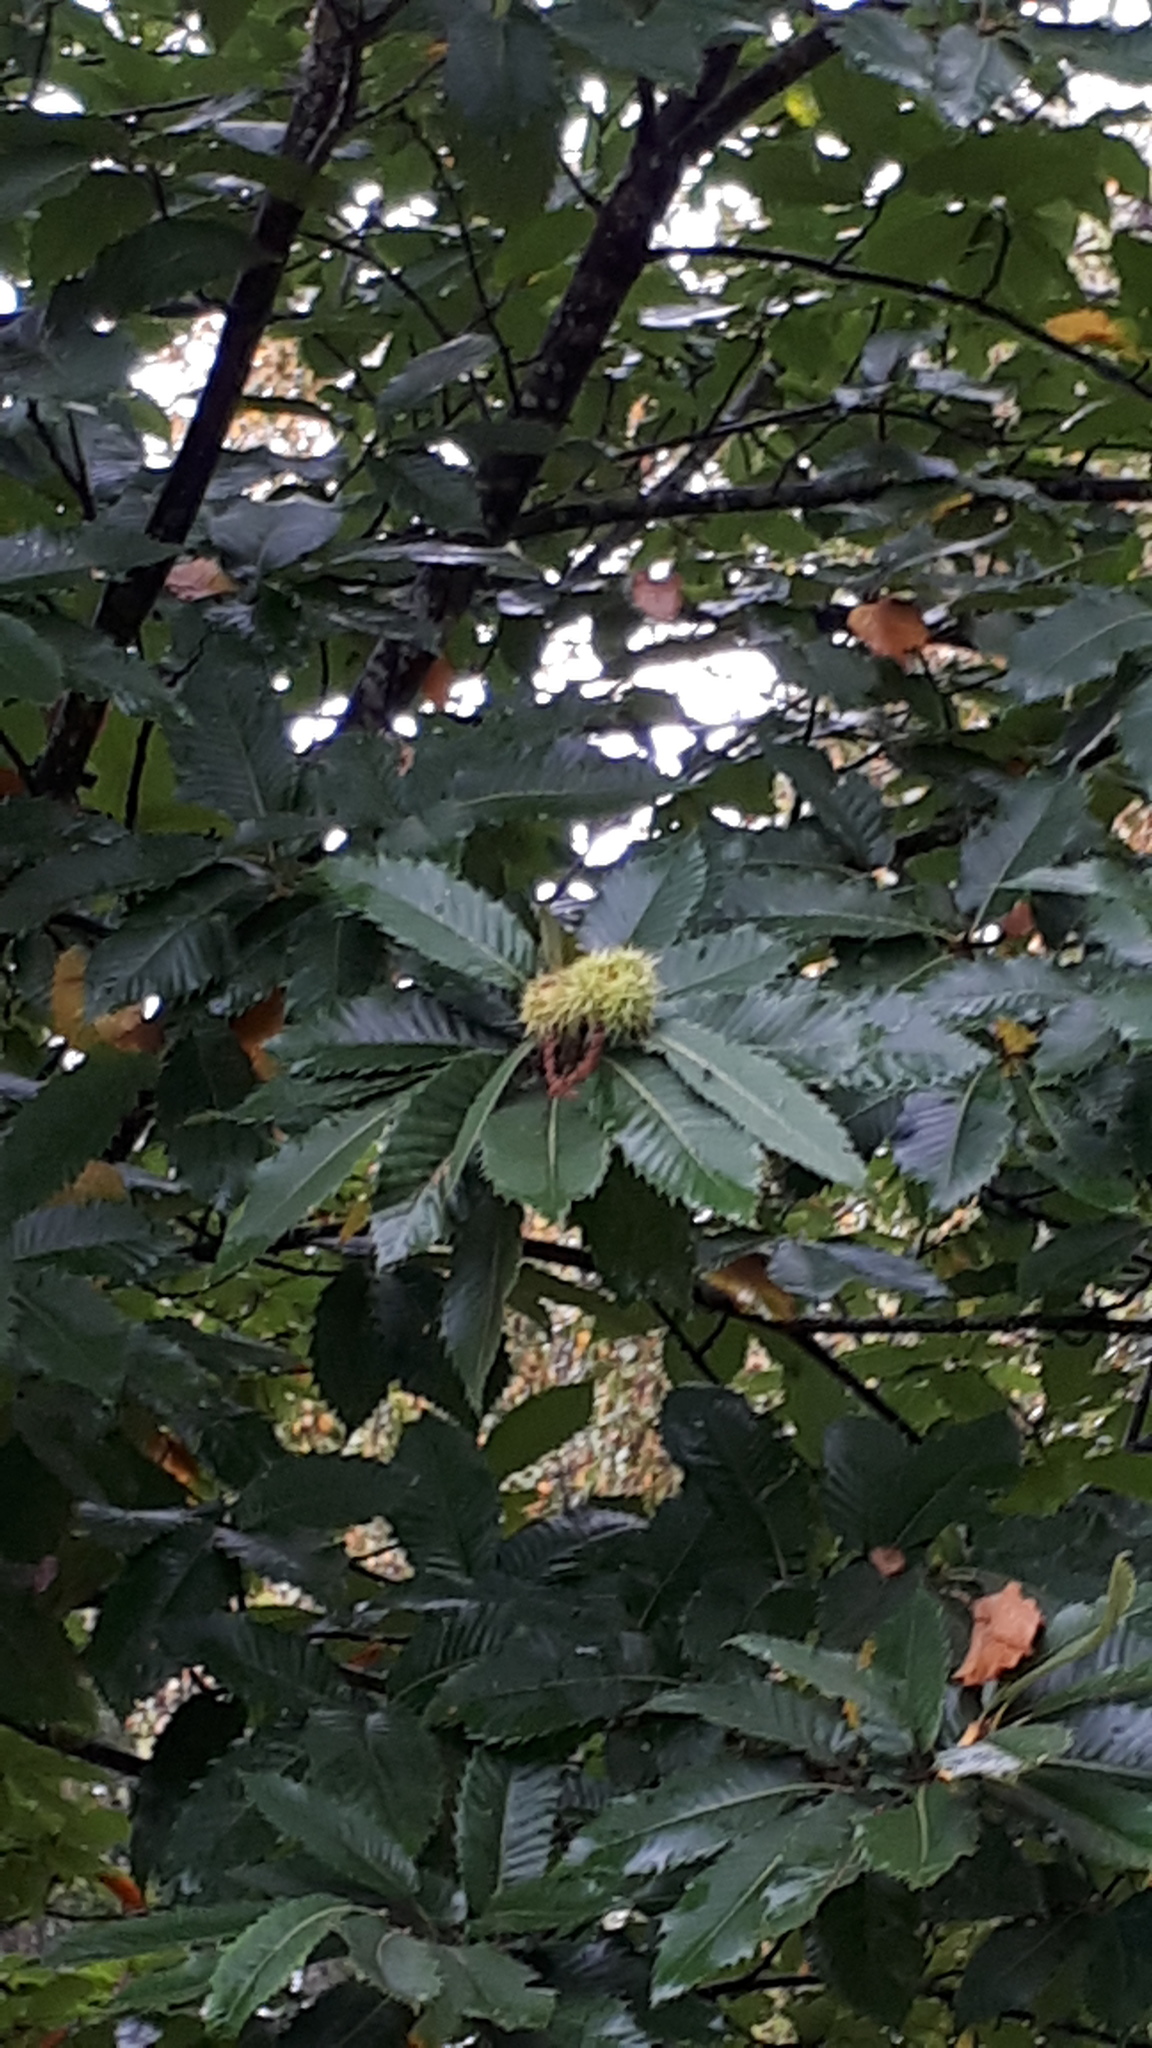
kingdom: Plantae
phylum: Tracheophyta
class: Magnoliopsida
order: Fagales
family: Fagaceae
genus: Castanea
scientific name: Castanea sativa
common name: Sweet chestnut
